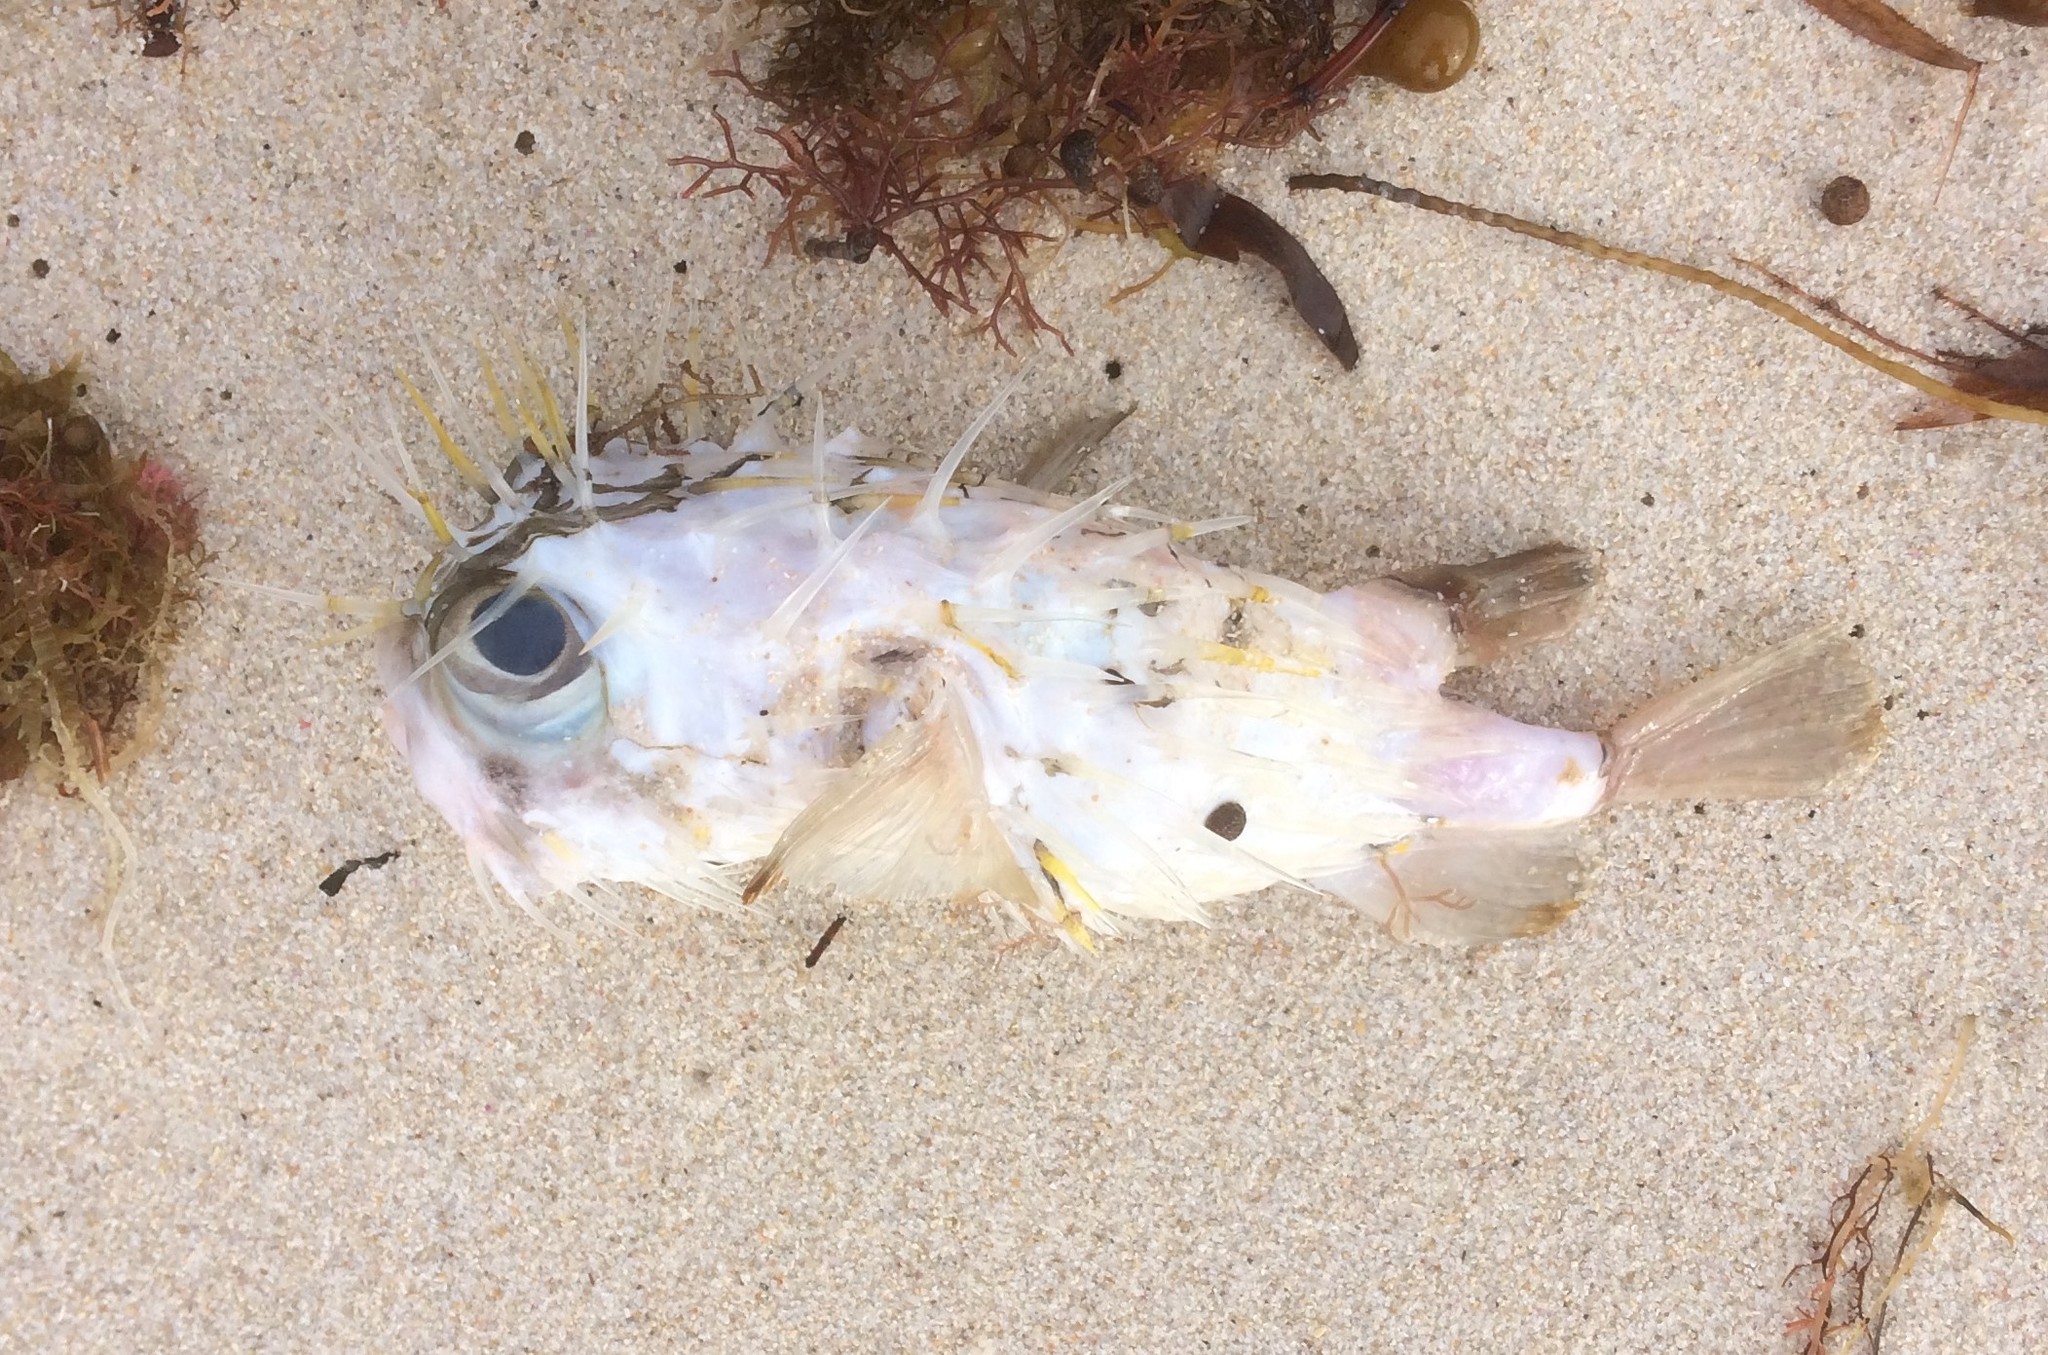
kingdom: Animalia
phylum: Chordata
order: Tetraodontiformes
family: Diodontidae
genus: Diodon
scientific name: Diodon nicthemerus
